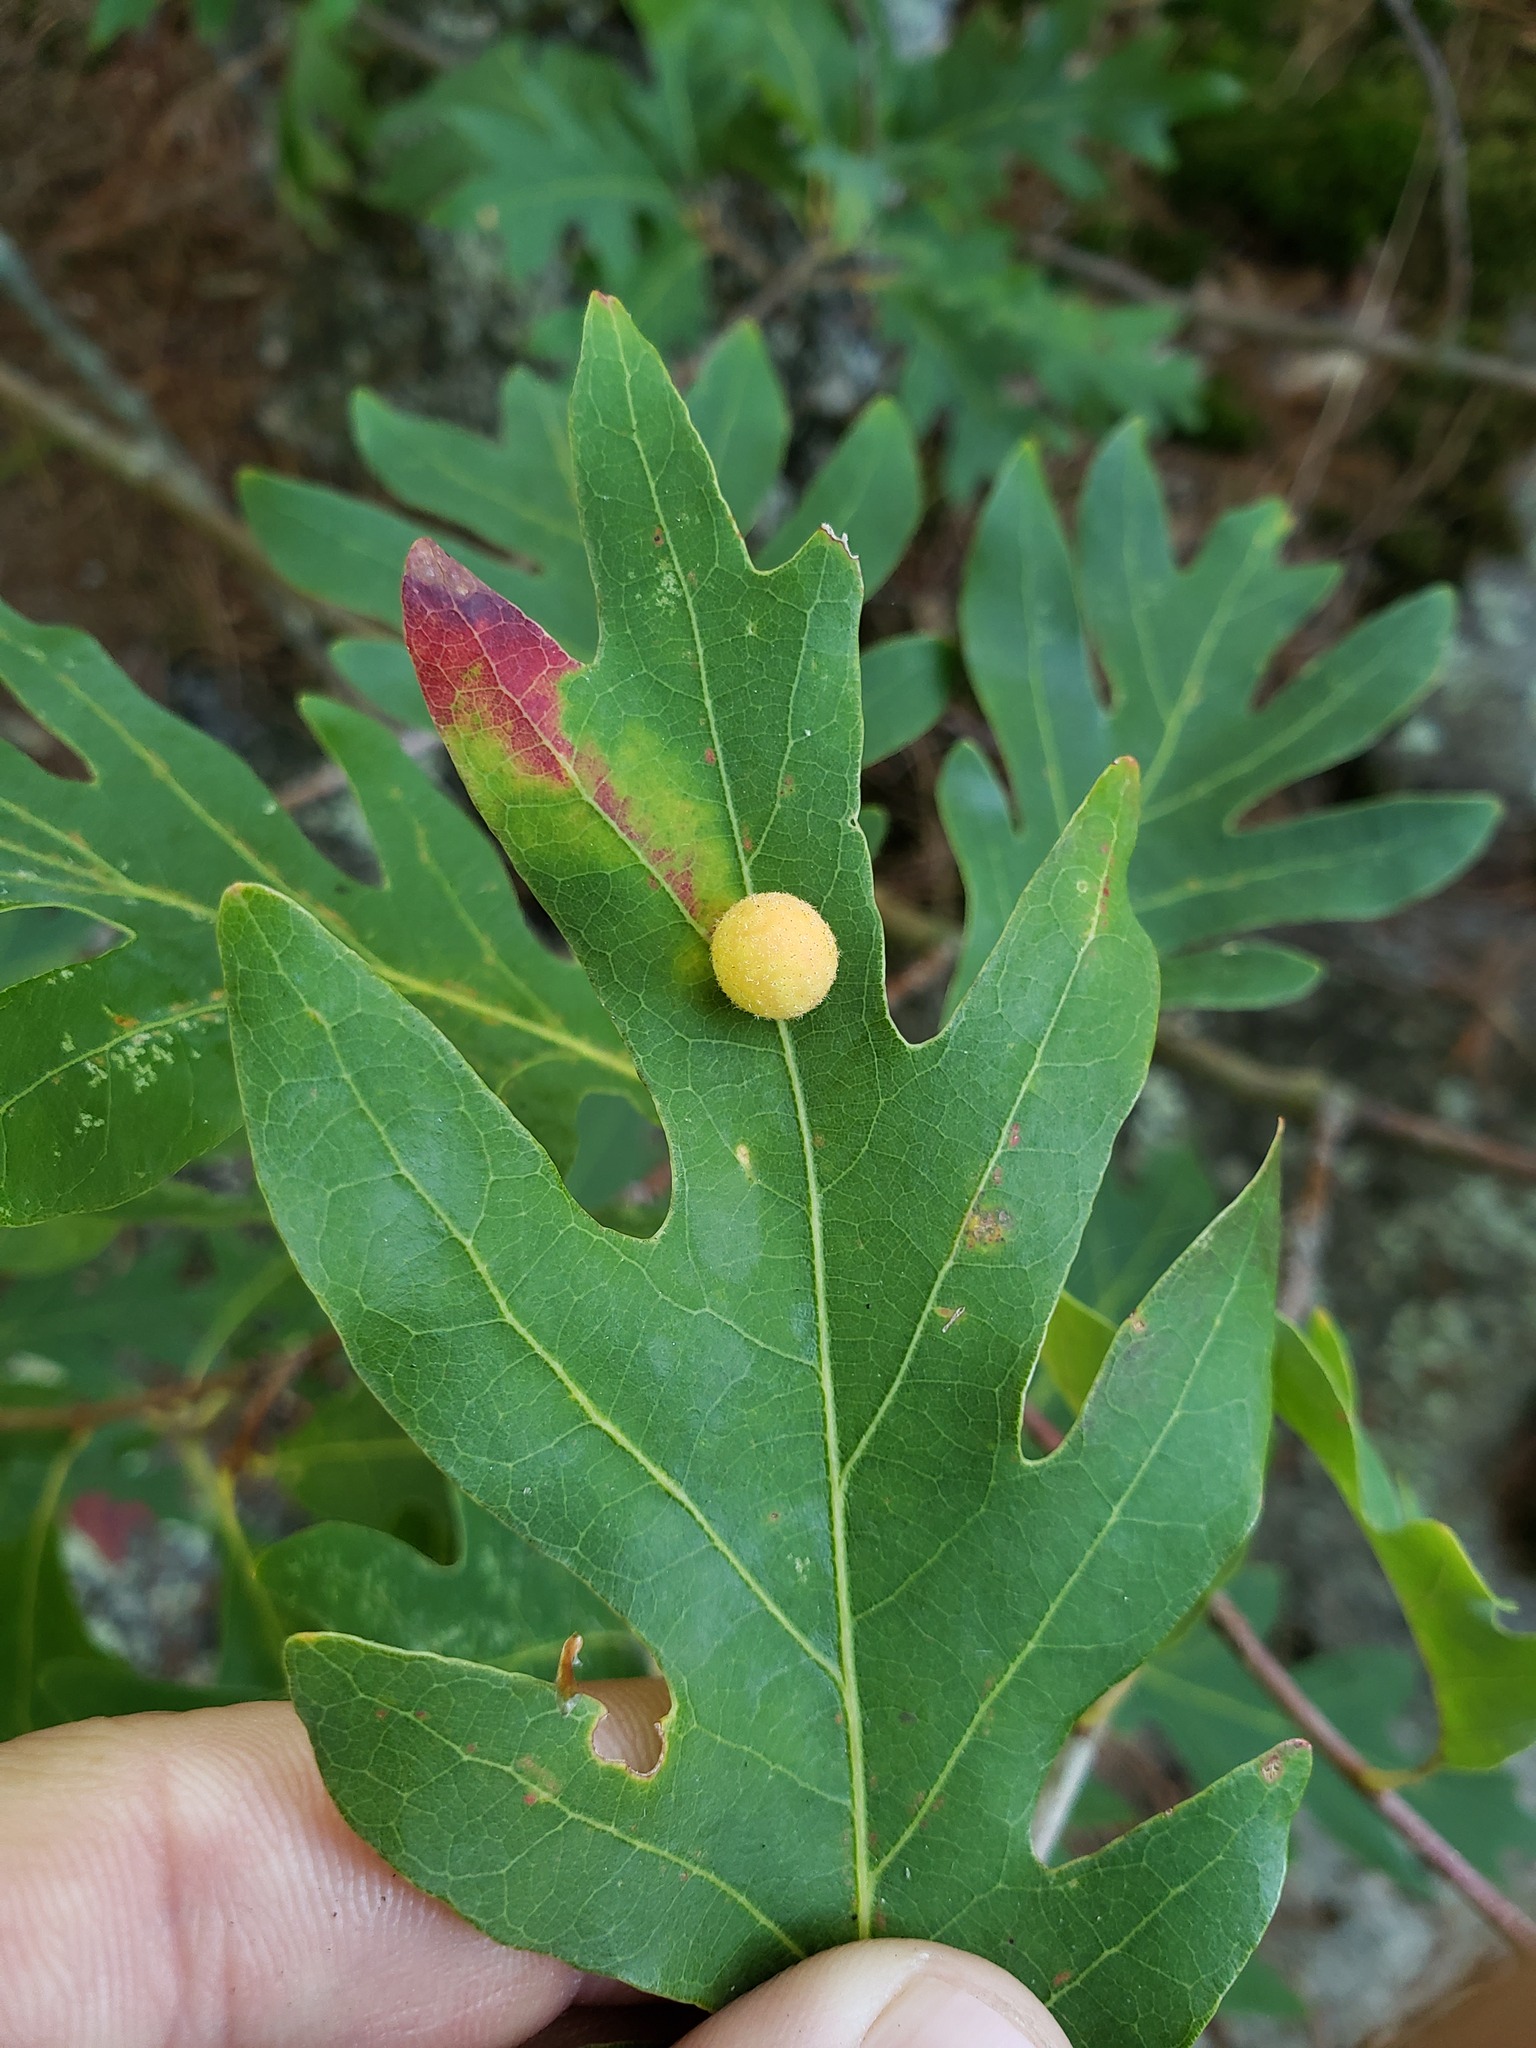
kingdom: Animalia
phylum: Arthropoda
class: Insecta
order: Hymenoptera
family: Cynipidae
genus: Philonix
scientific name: Philonix fulvicollis
